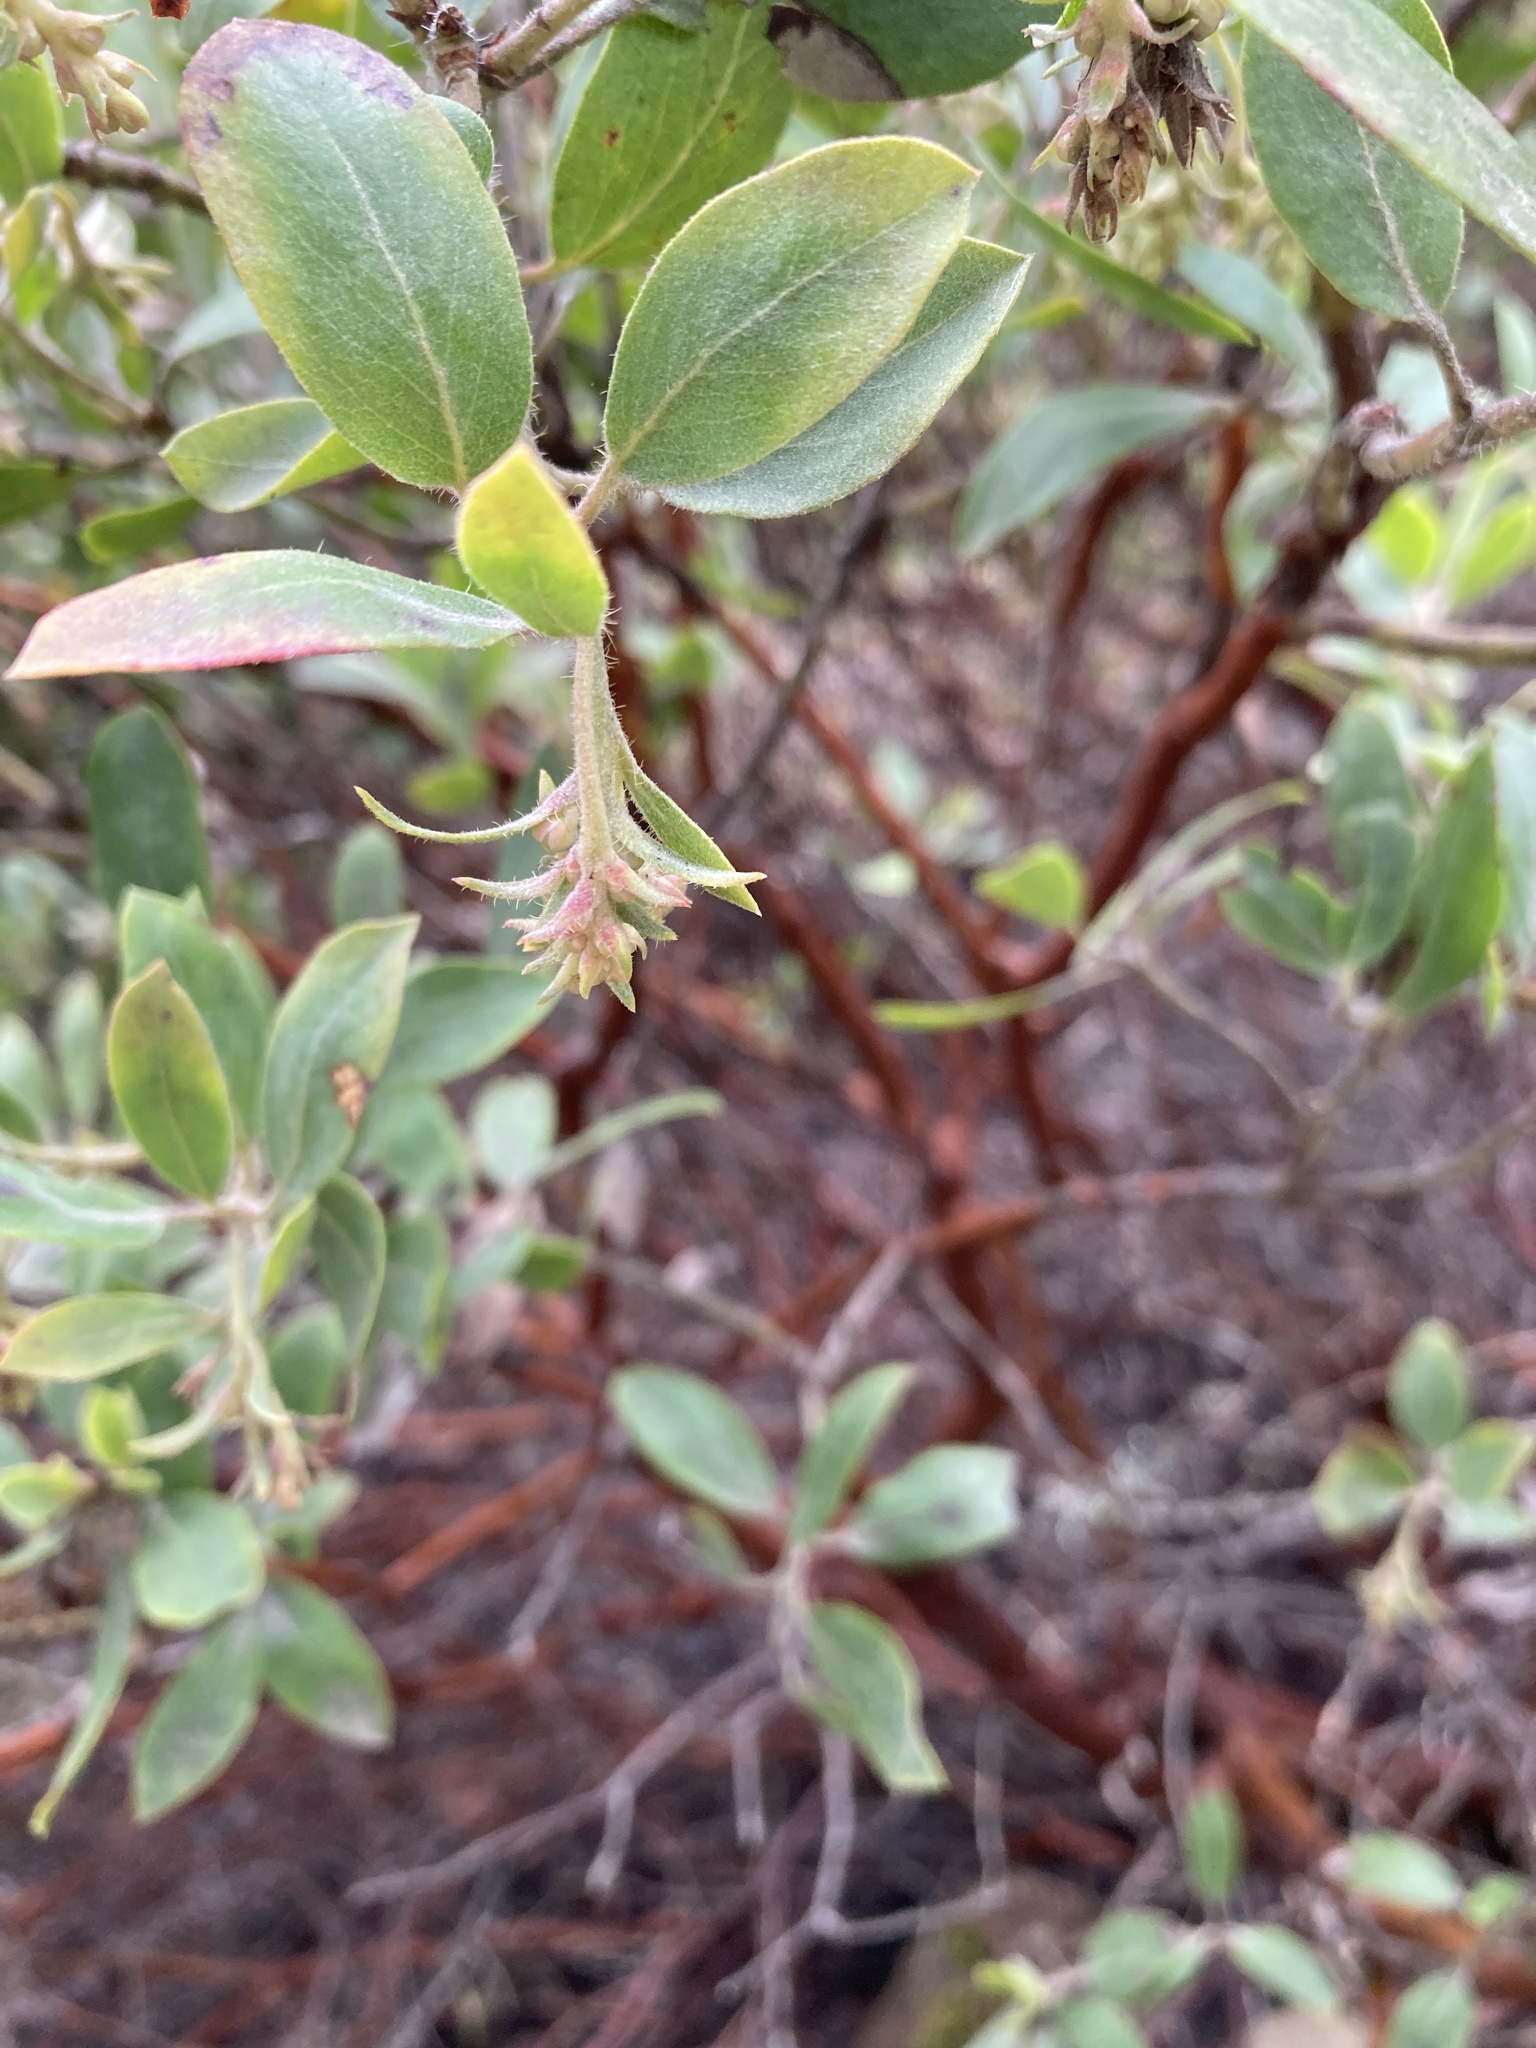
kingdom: Plantae
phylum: Tracheophyta
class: Magnoliopsida
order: Ericales
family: Ericaceae
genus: Arctostaphylos
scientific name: Arctostaphylos columbiana
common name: Bristly bearberry
